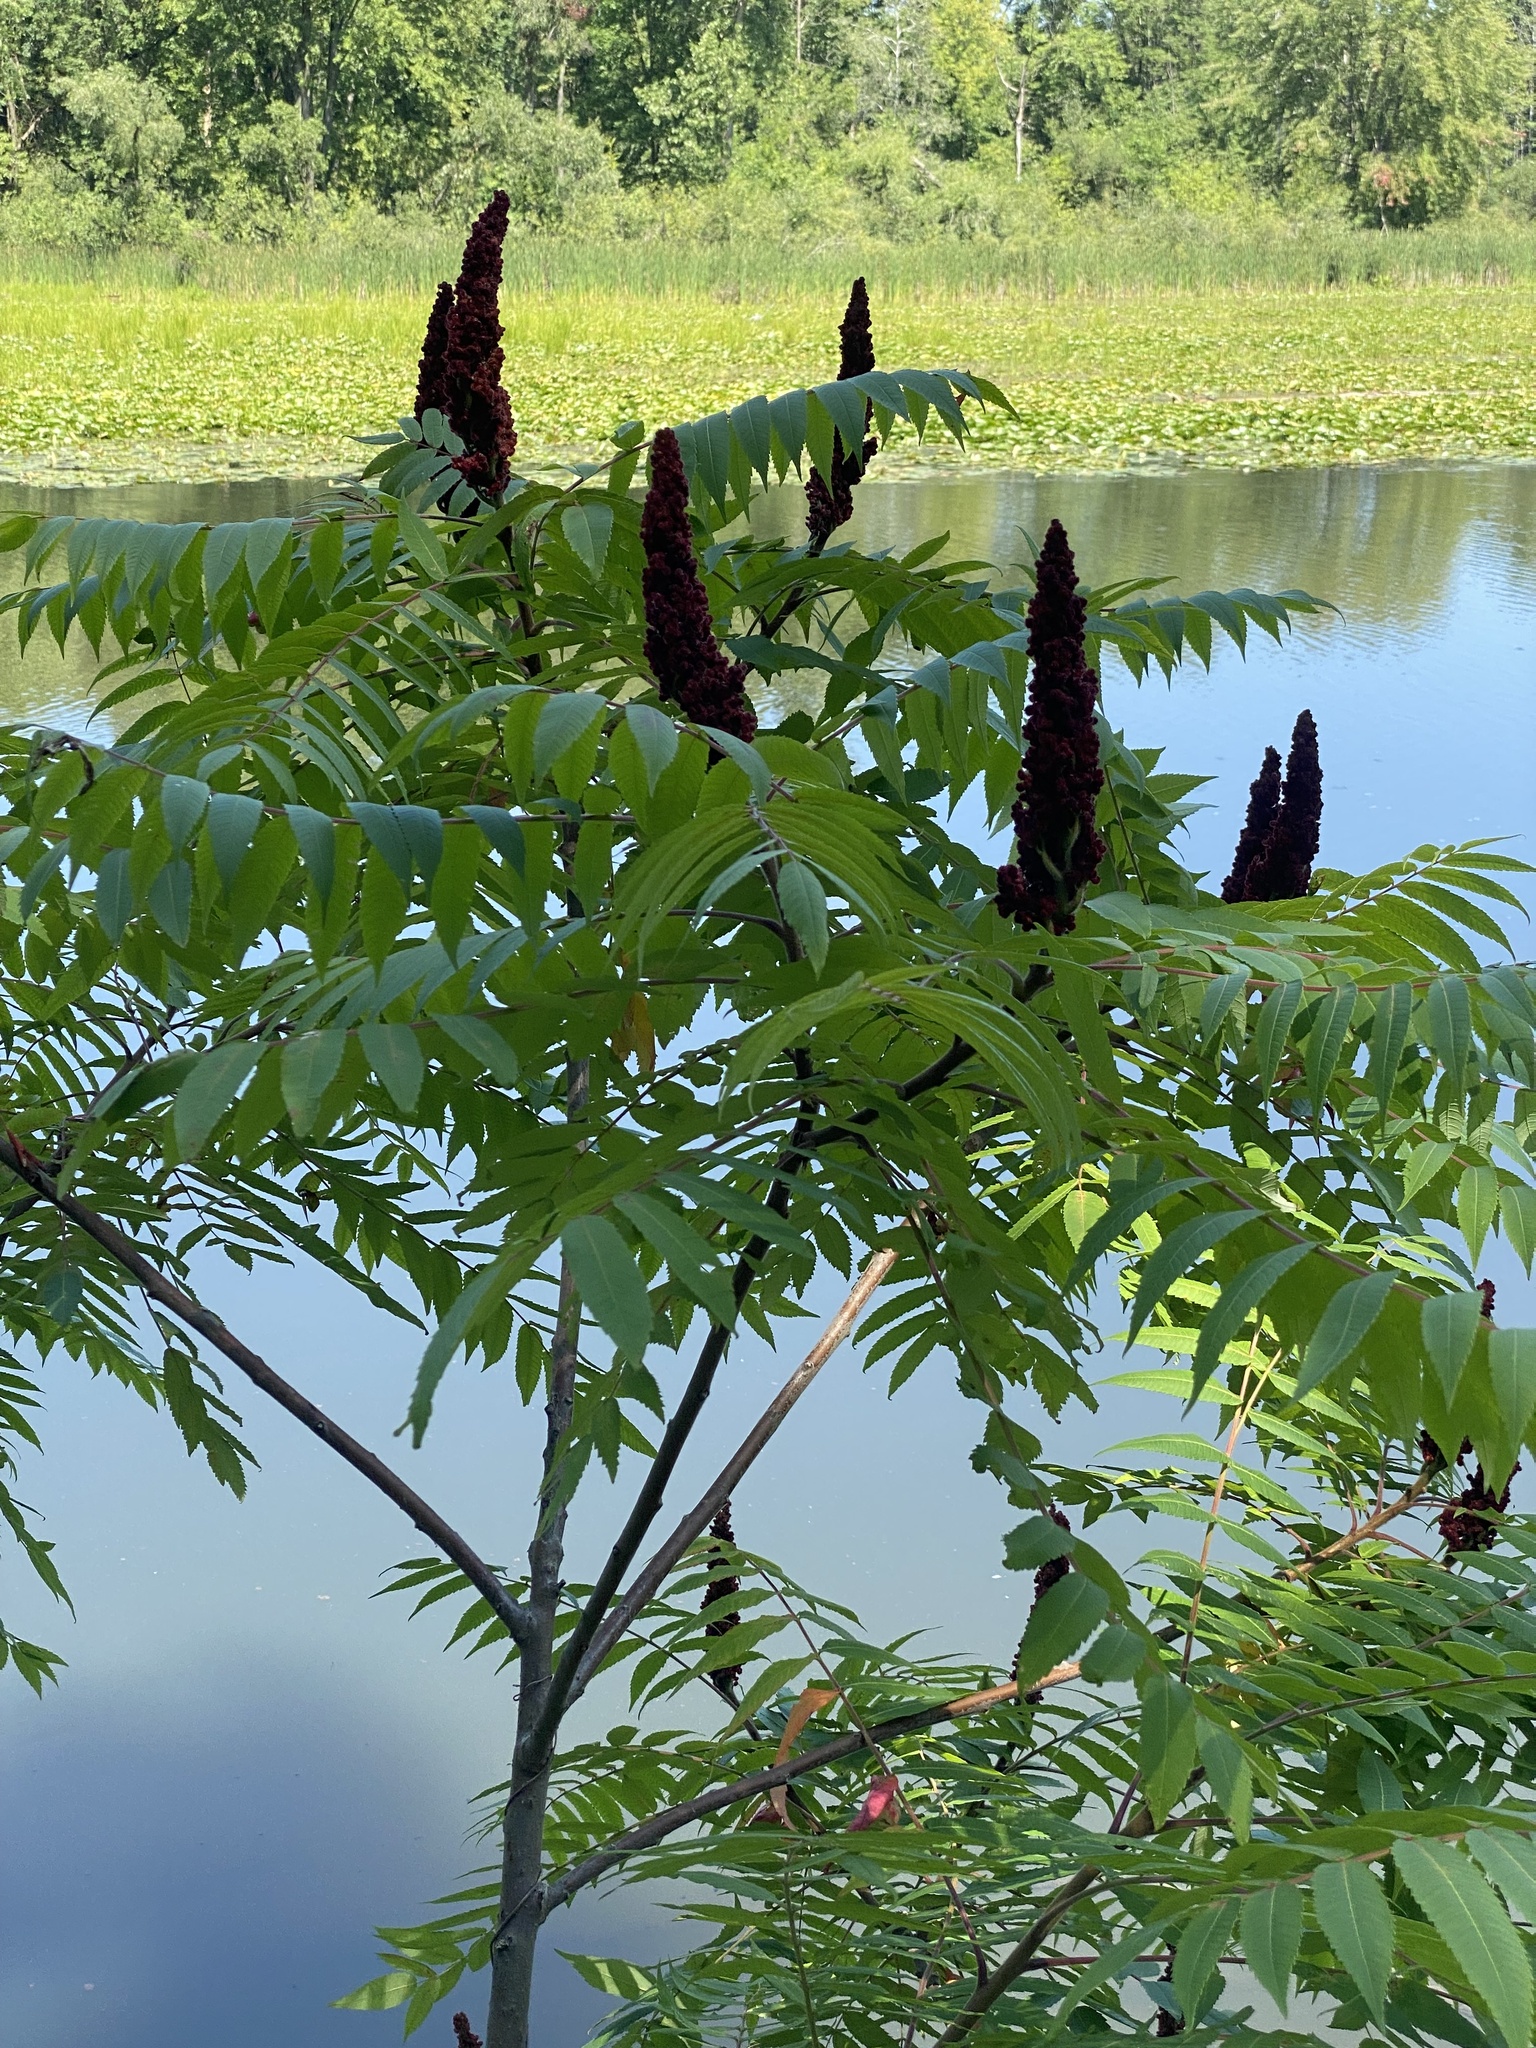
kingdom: Plantae
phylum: Tracheophyta
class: Magnoliopsida
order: Sapindales
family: Anacardiaceae
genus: Rhus
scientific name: Rhus typhina
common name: Staghorn sumac
